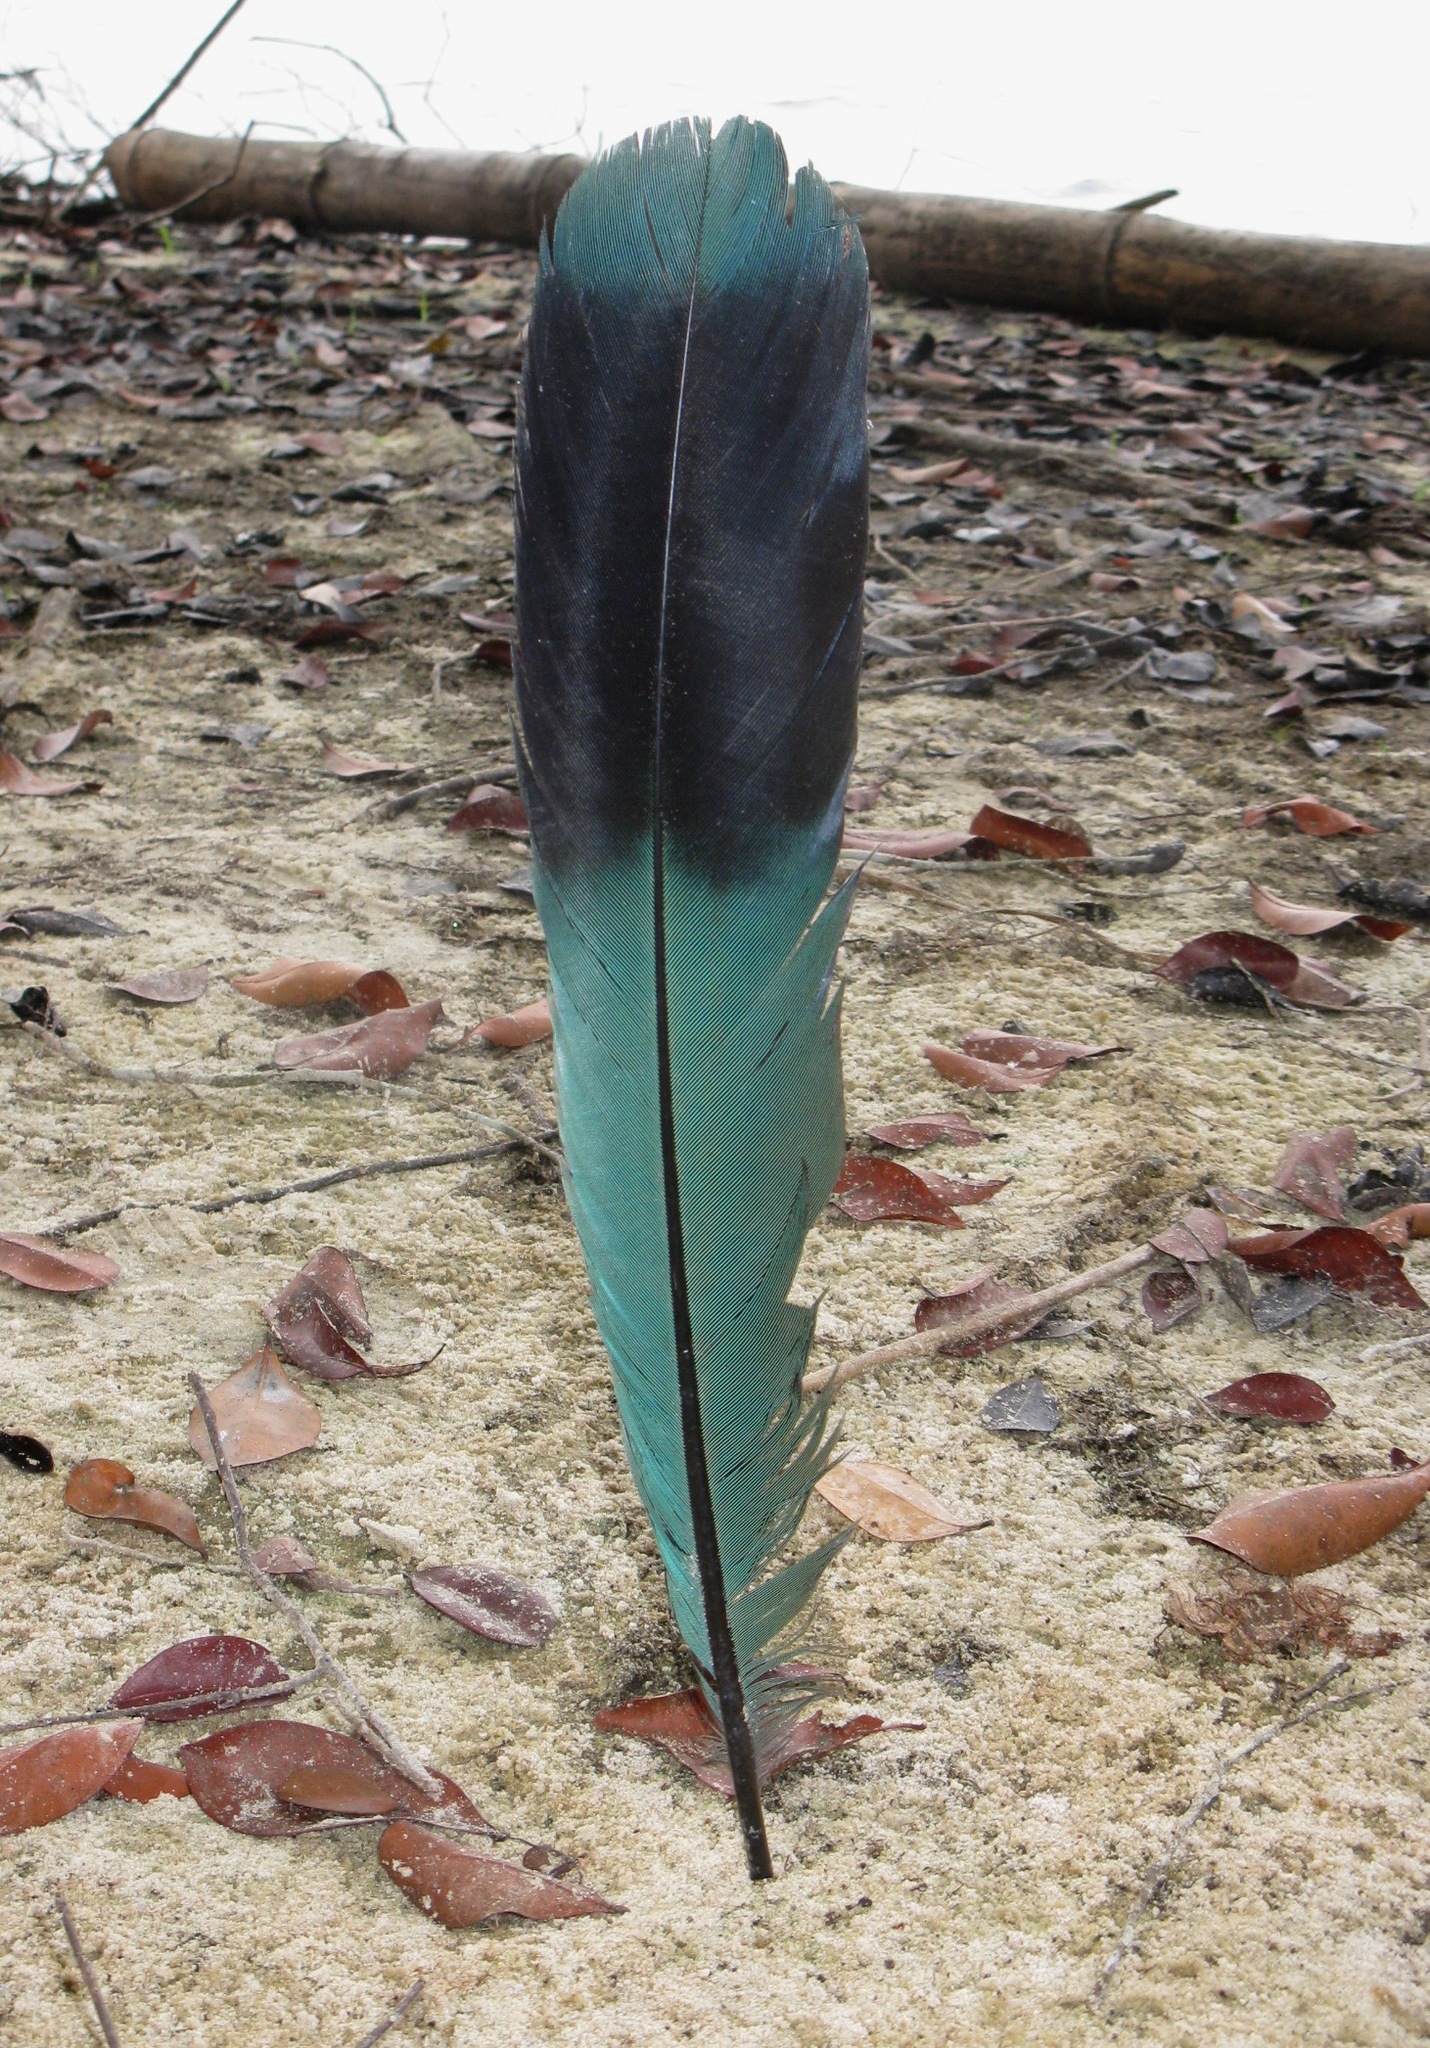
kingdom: Animalia
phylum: Chordata
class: Aves
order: Musophagiformes
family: Musophagidae
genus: Corythaeola
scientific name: Corythaeola cristata
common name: Great blue turaco
